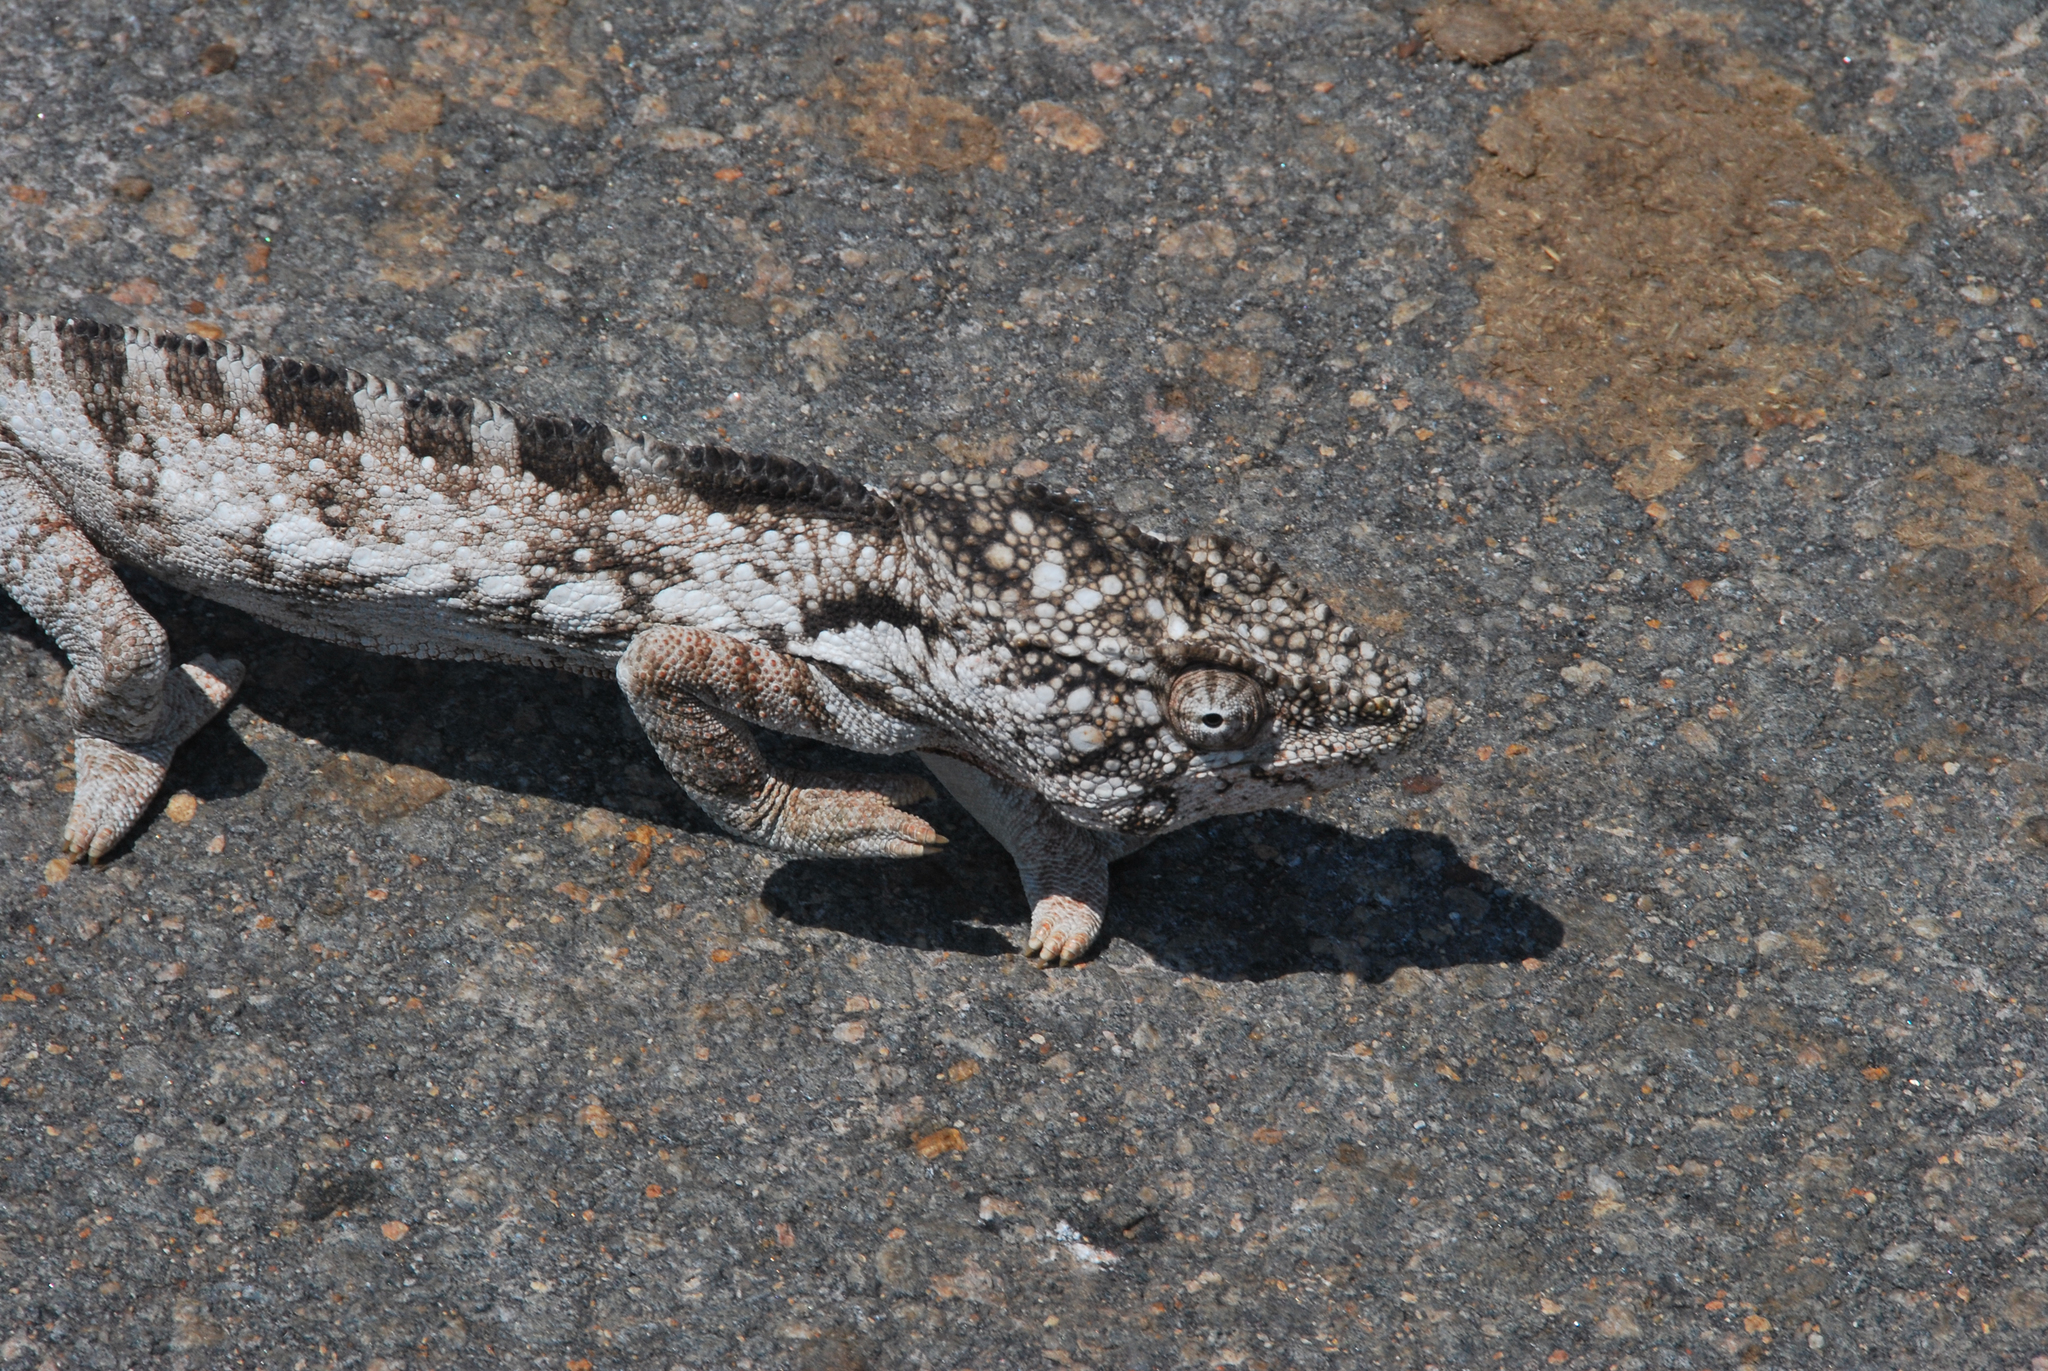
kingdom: Animalia
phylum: Chordata
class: Squamata
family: Chamaeleonidae
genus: Furcifer
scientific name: Furcifer oustaleti
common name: Oustalet's chameleon
